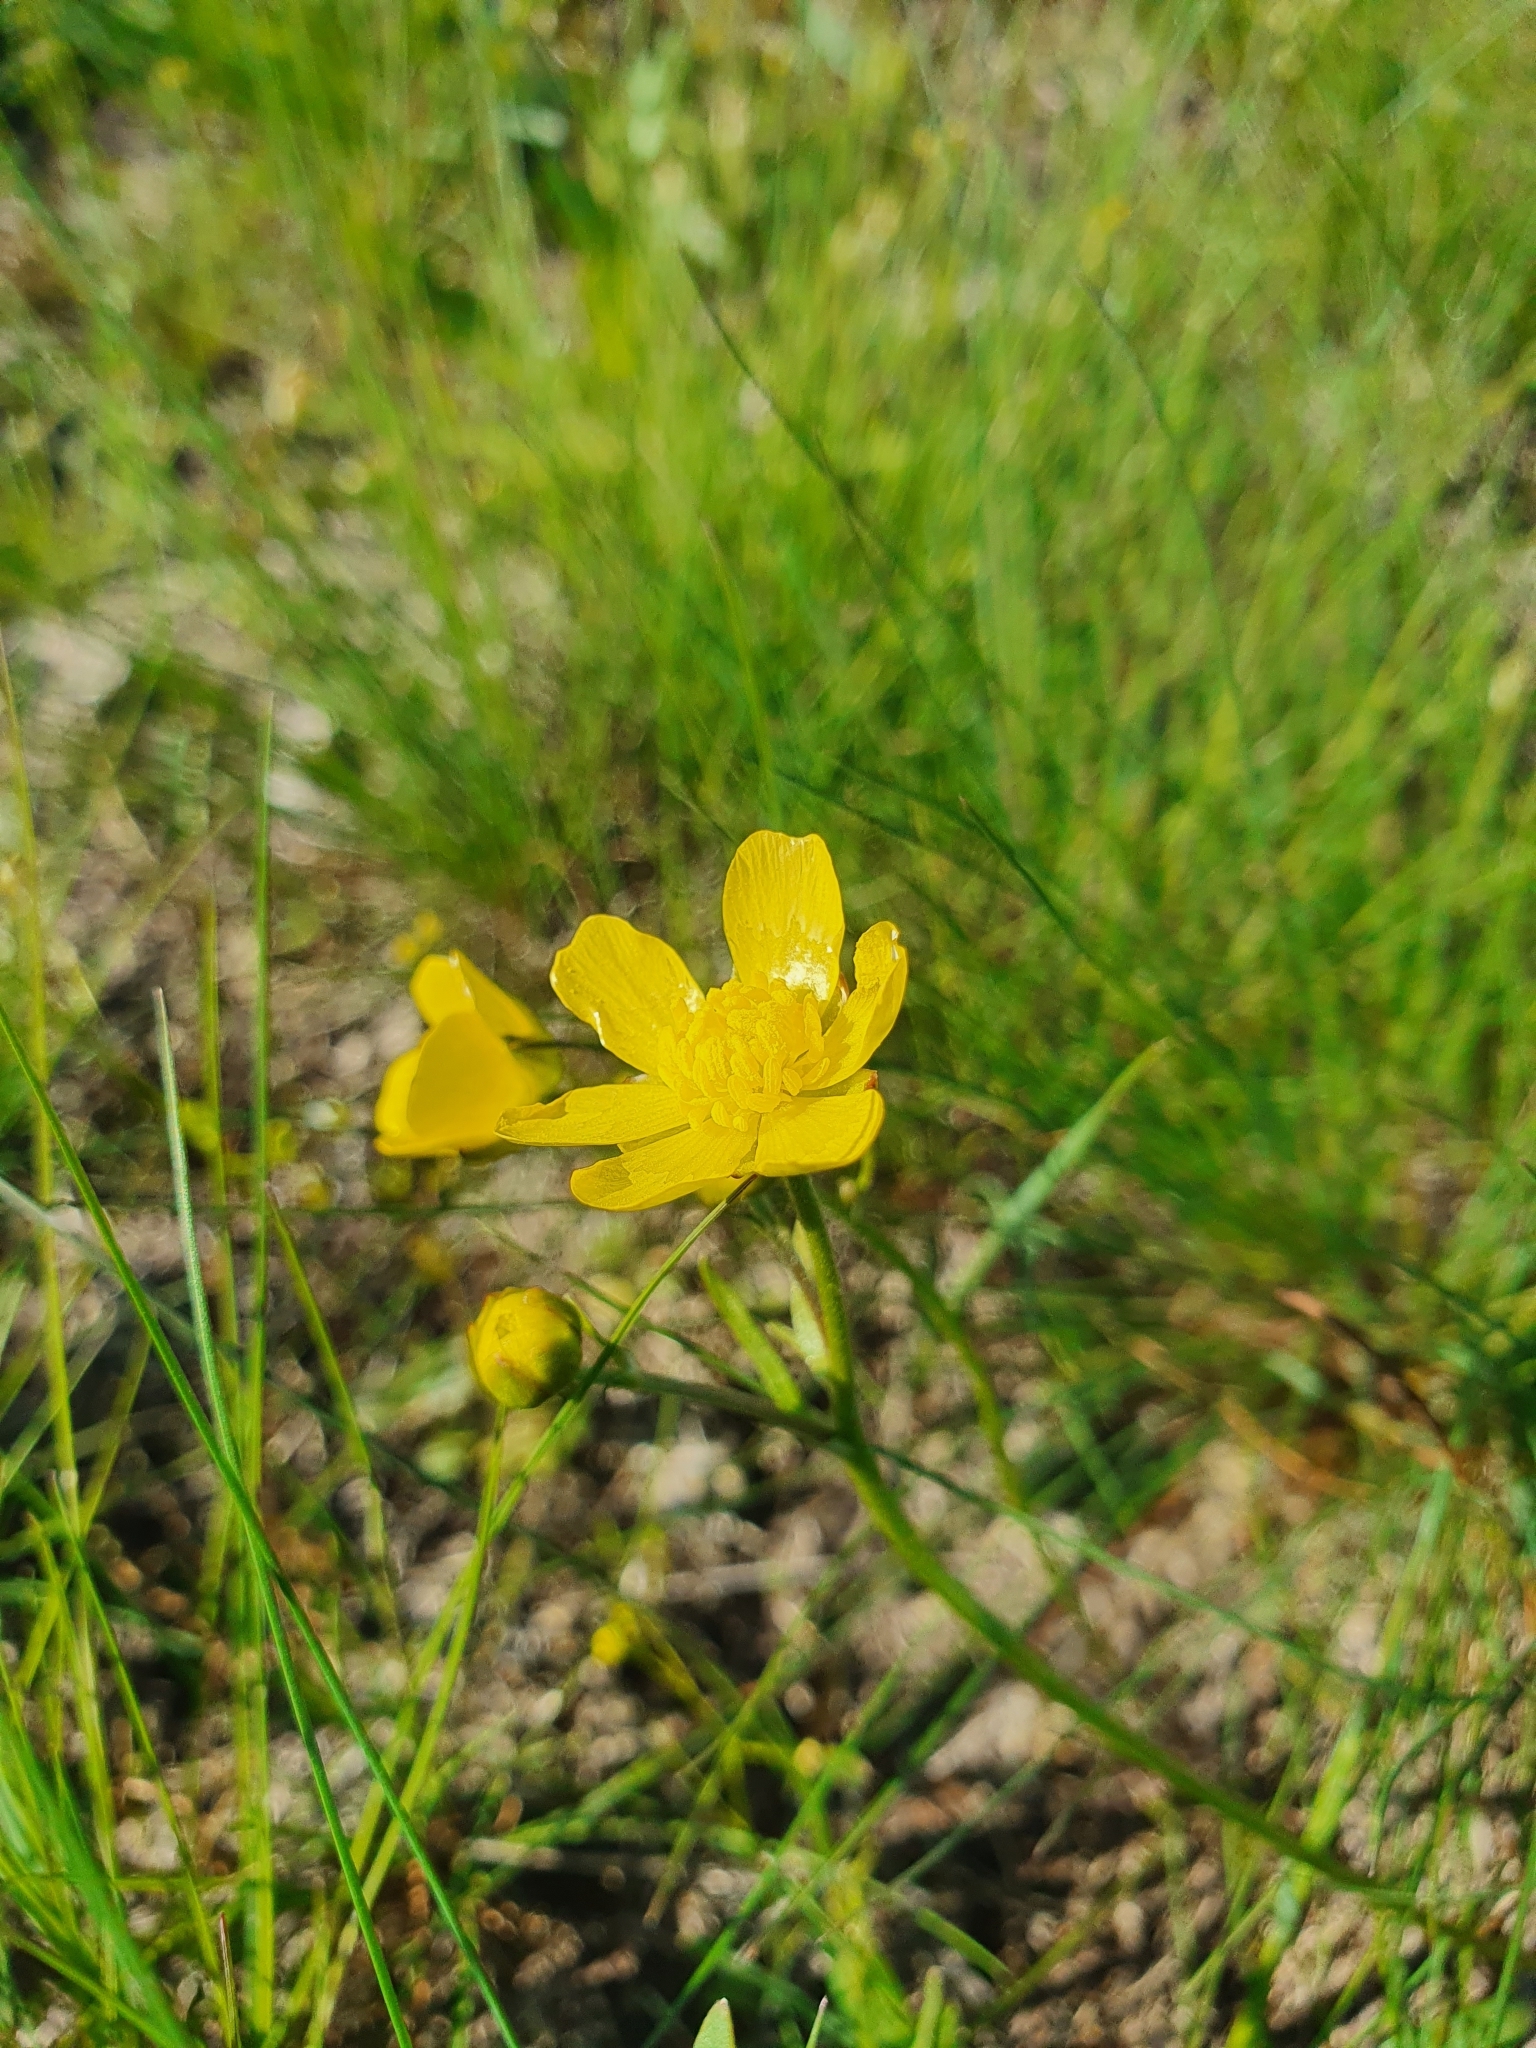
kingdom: Plantae
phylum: Tracheophyta
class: Magnoliopsida
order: Ranunculales
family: Ranunculaceae
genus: Ranunculus
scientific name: Ranunculus pedatus
